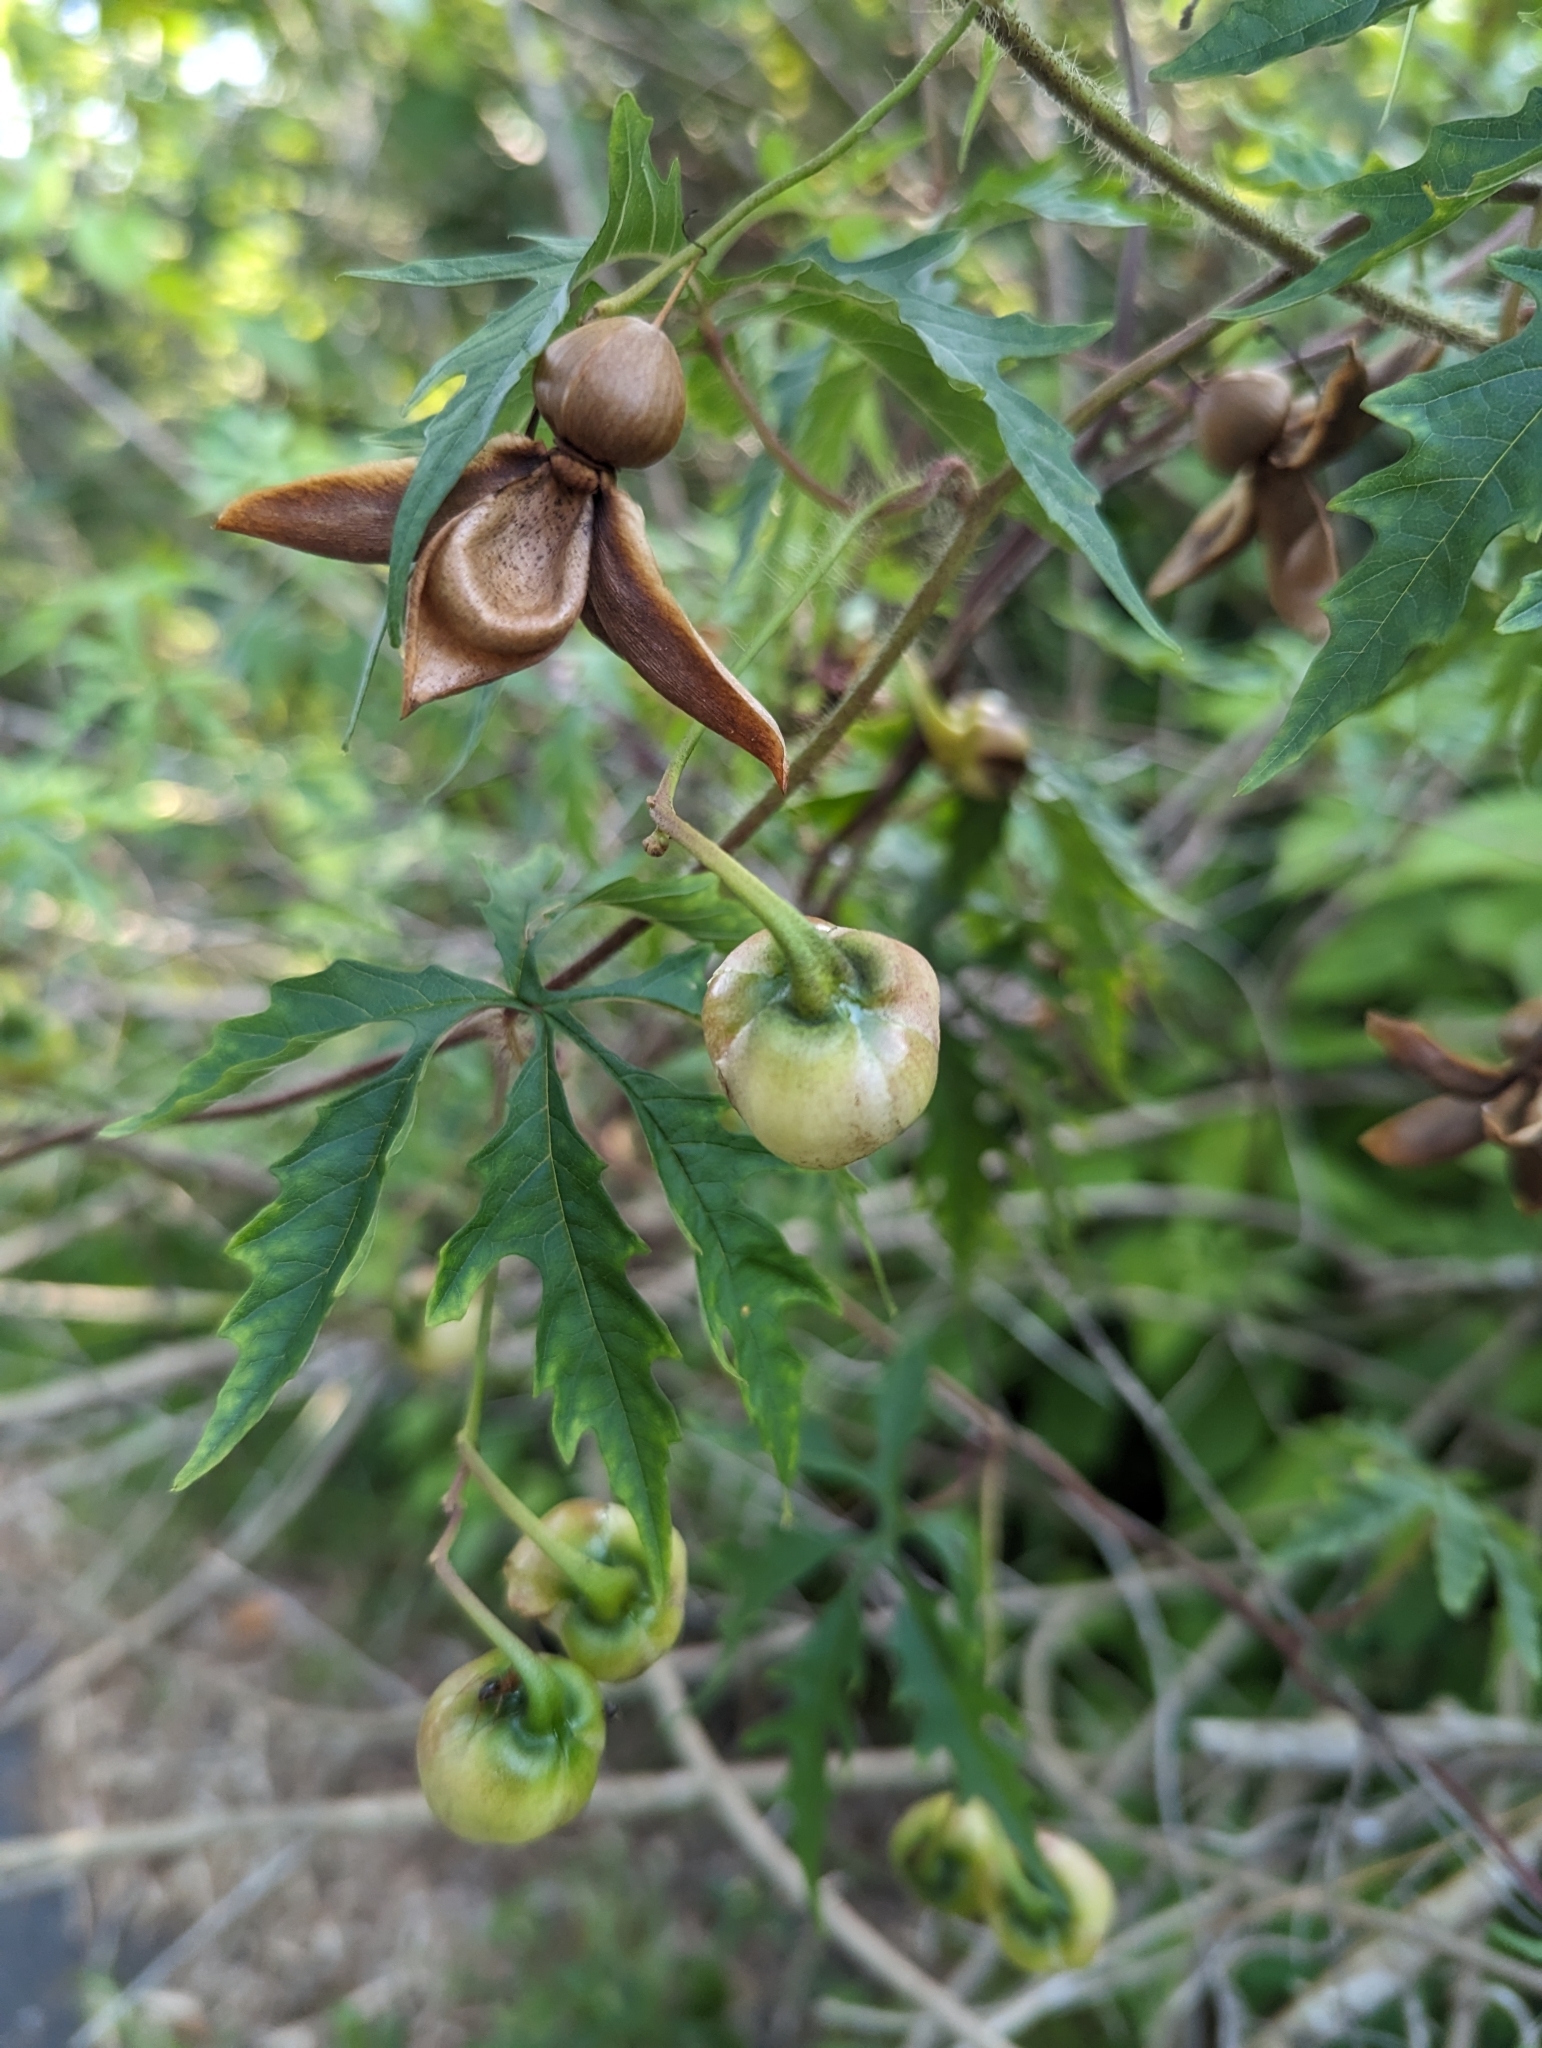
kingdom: Plantae
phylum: Tracheophyta
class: Magnoliopsida
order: Solanales
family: Convolvulaceae
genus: Distimake
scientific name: Distimake dissectus
